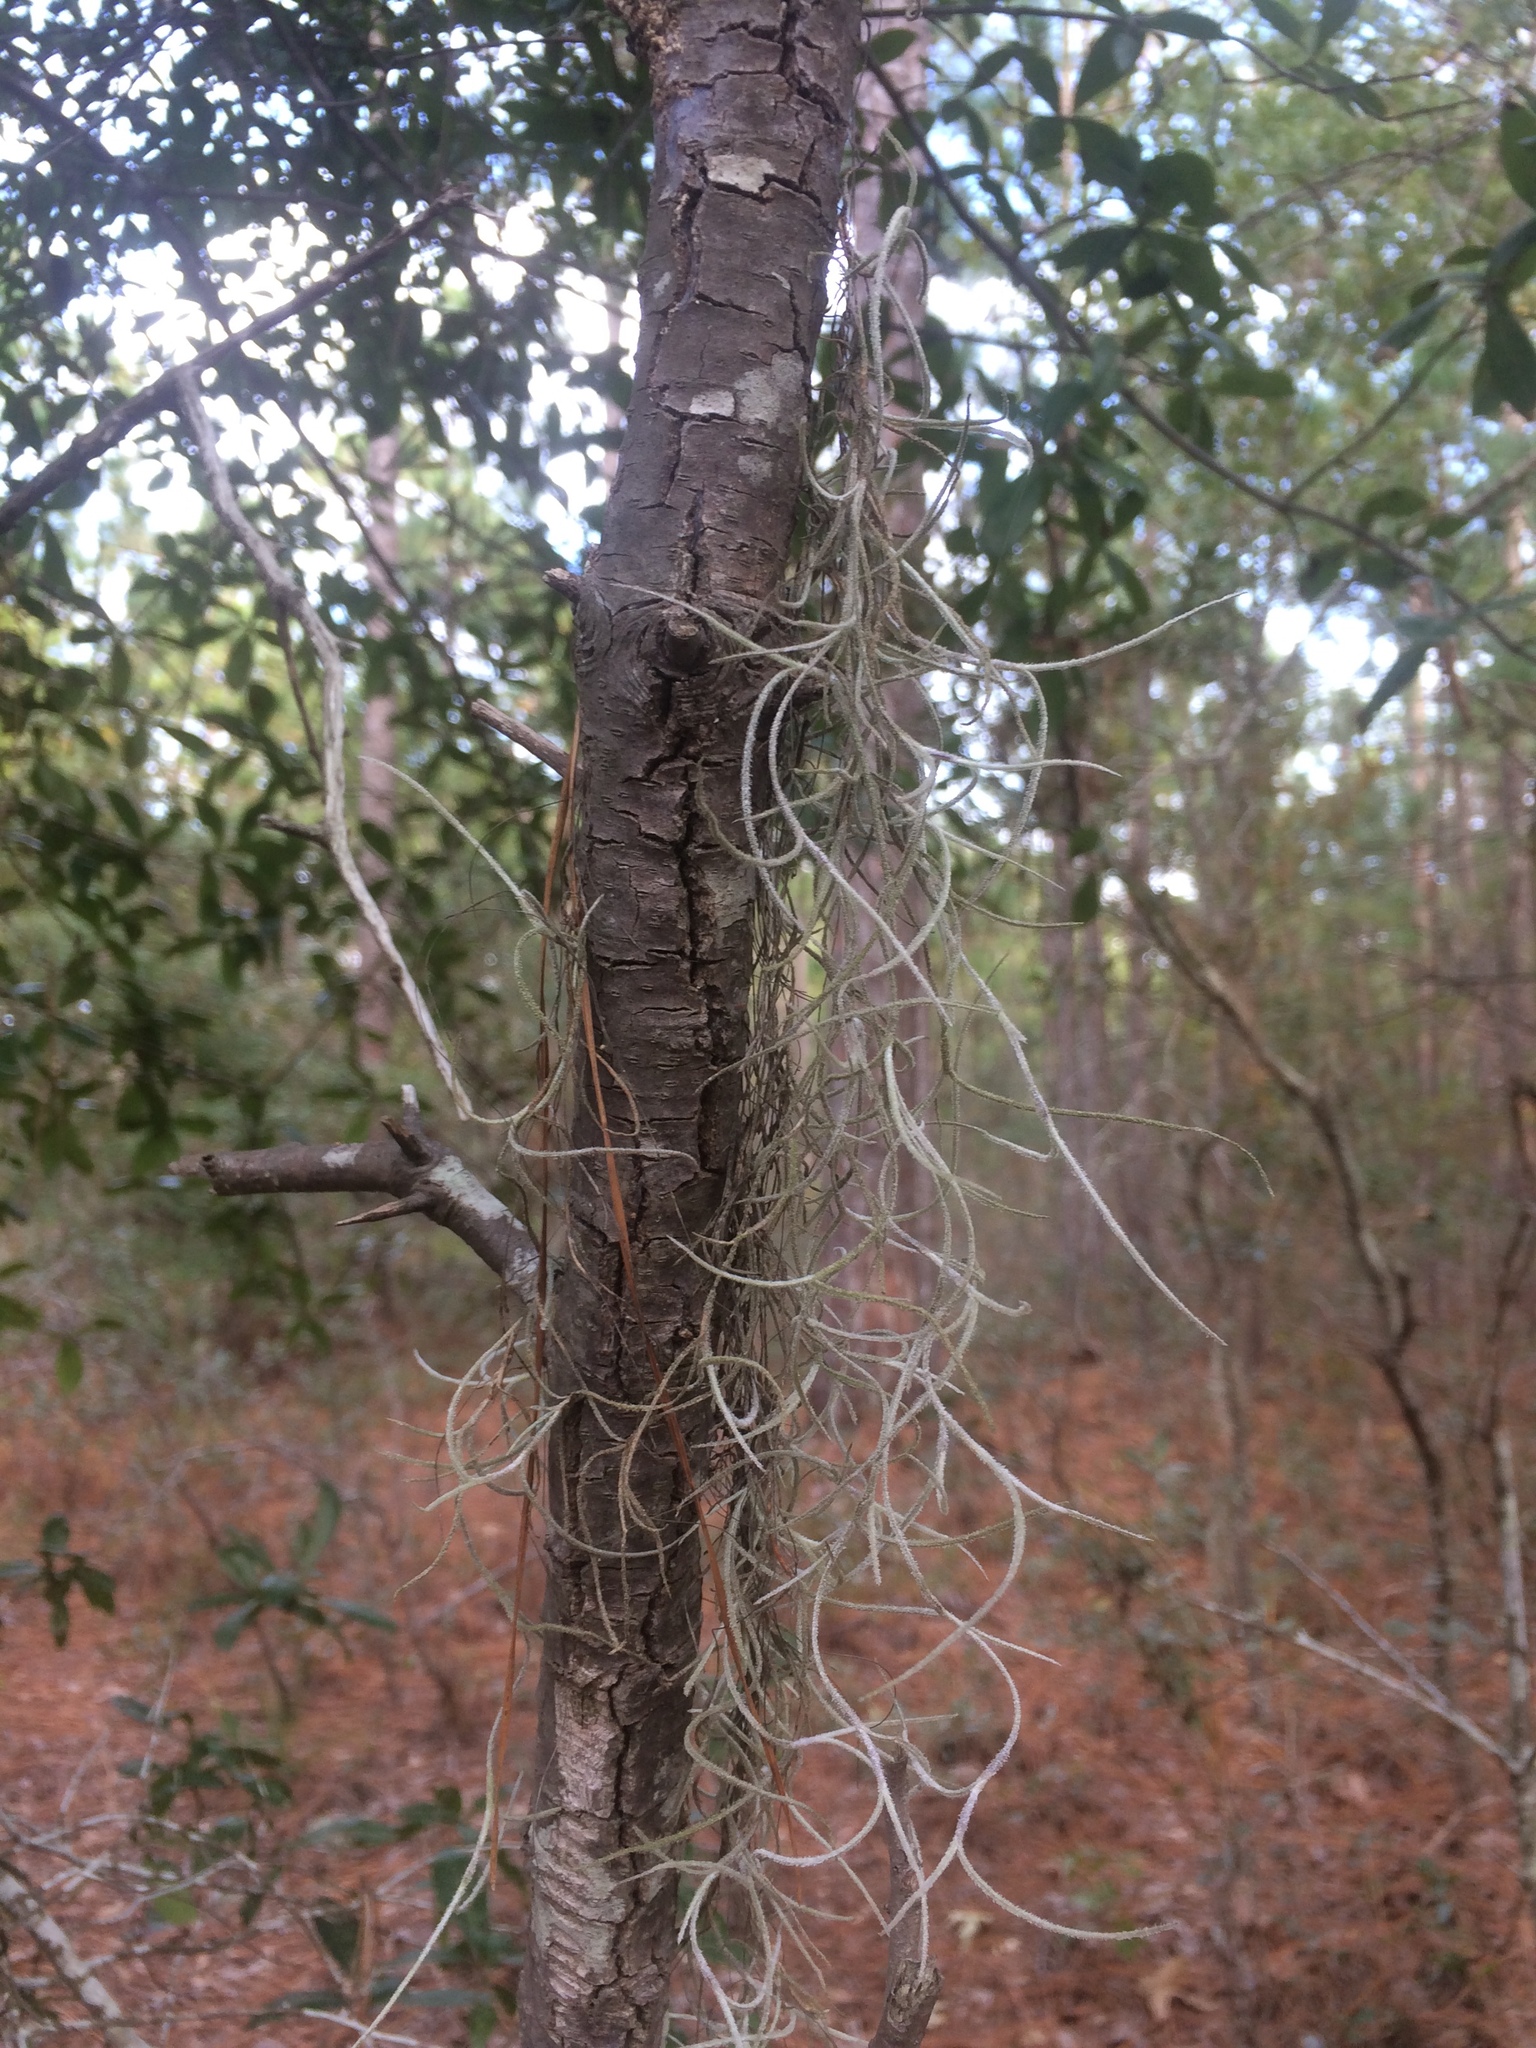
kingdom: Plantae
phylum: Tracheophyta
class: Liliopsida
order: Poales
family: Bromeliaceae
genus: Tillandsia
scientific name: Tillandsia usneoides
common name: Spanish moss
